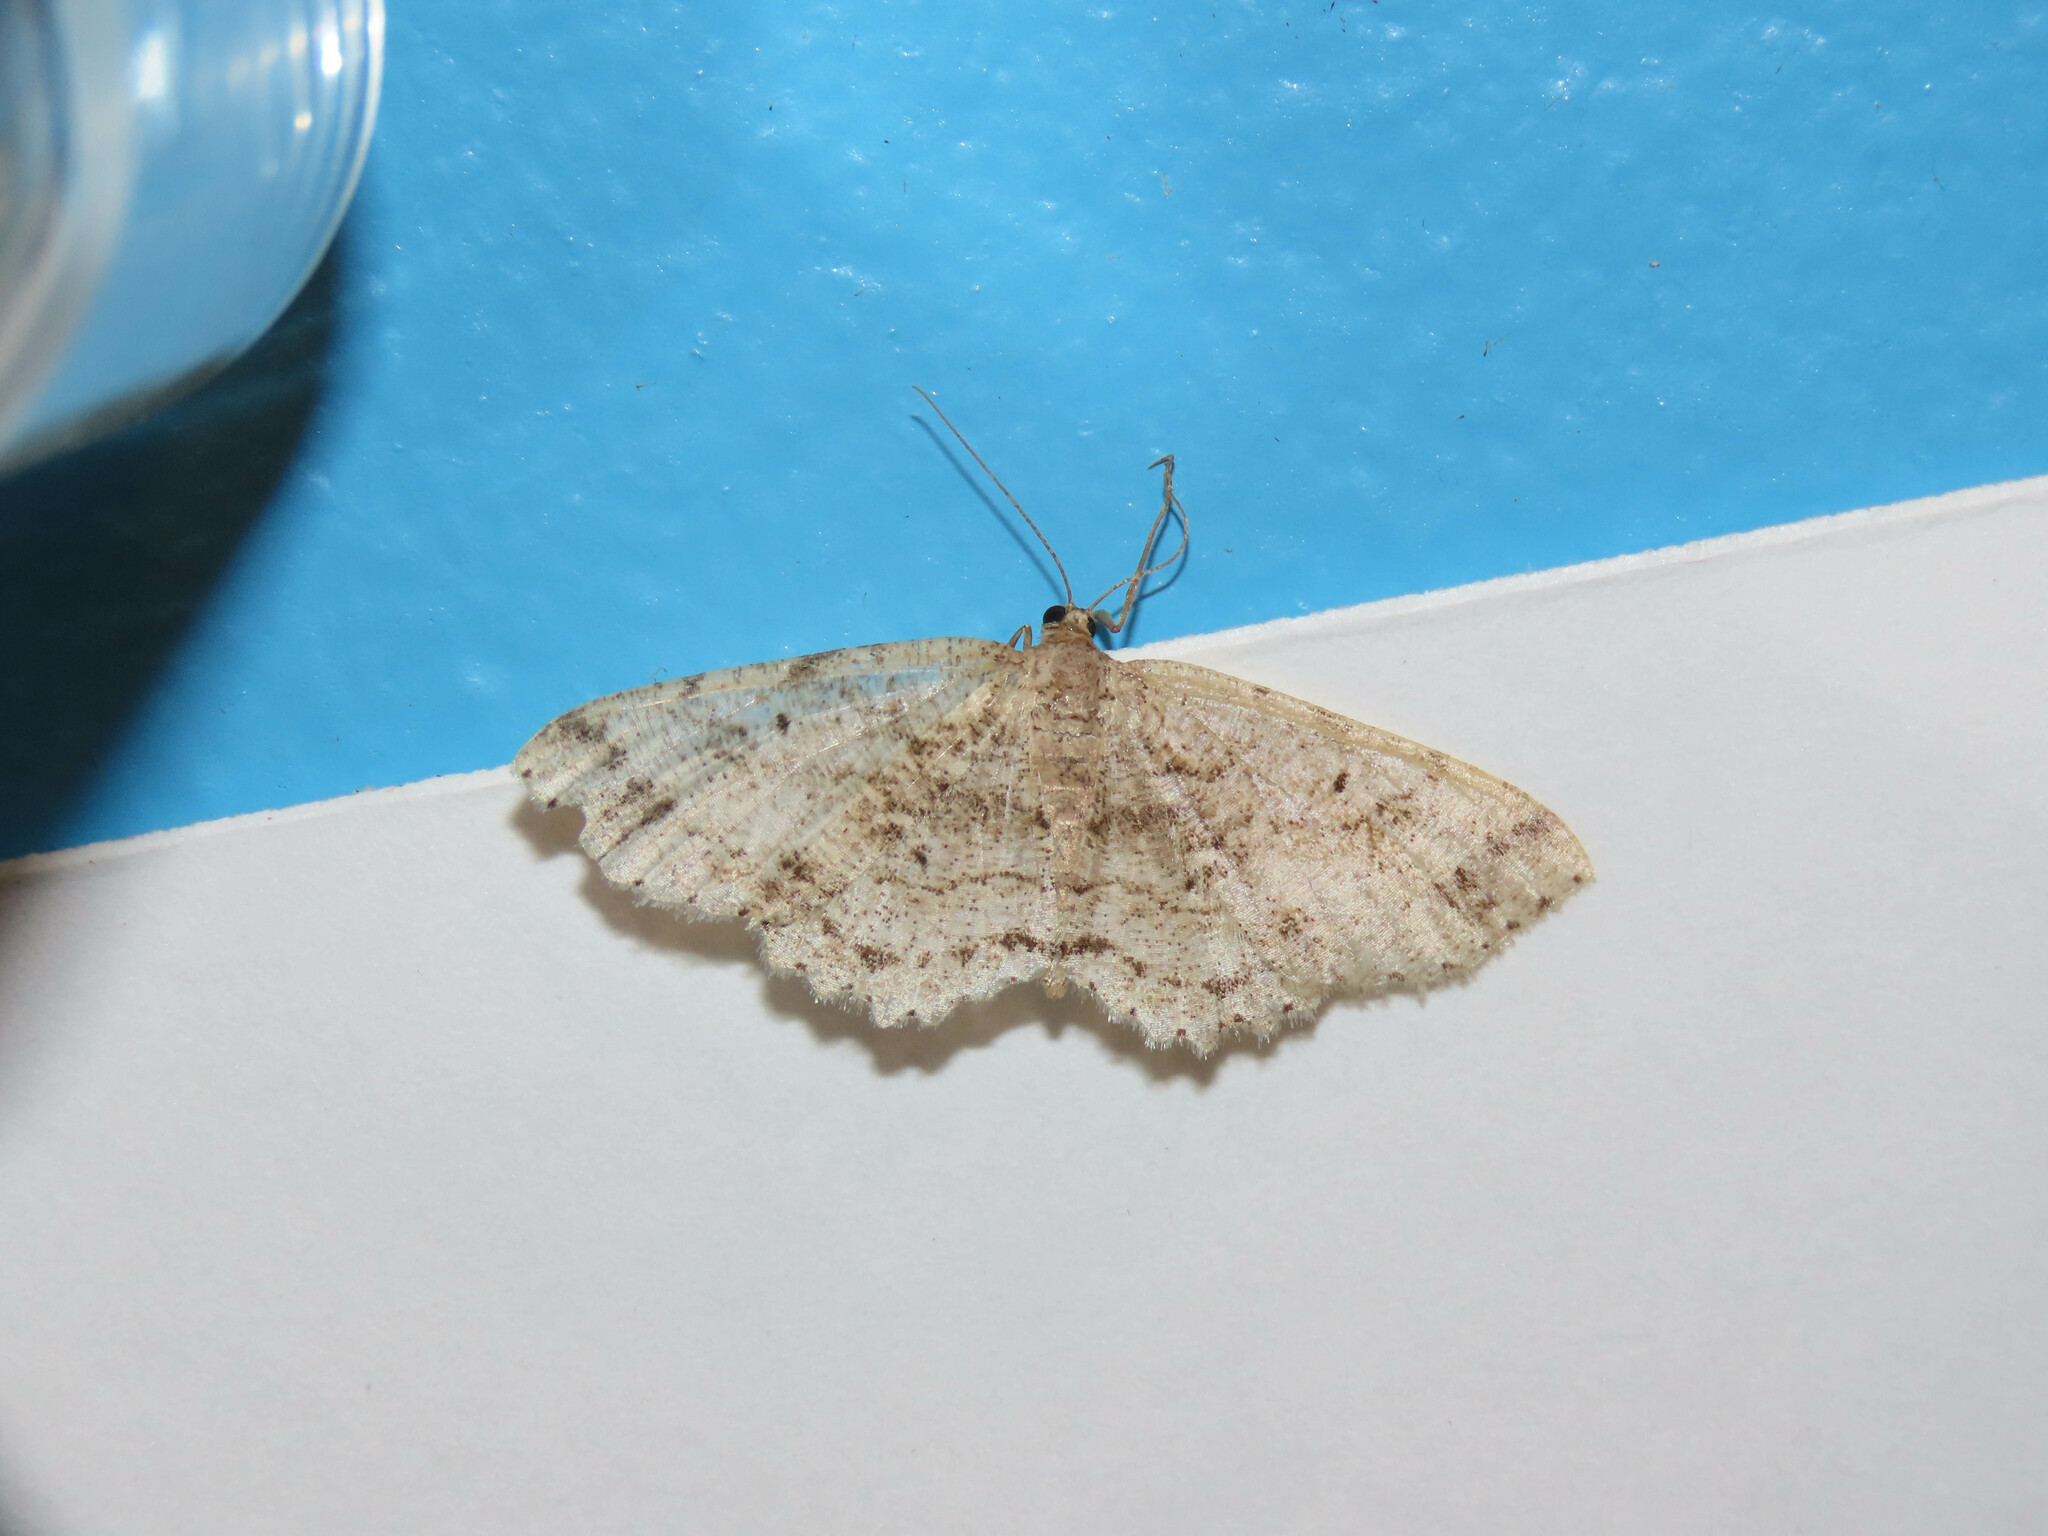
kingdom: Animalia
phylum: Arthropoda
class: Insecta
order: Lepidoptera
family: Geometridae
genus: Melanolophia
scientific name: Melanolophia canadaria
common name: Canadian melanolophia
